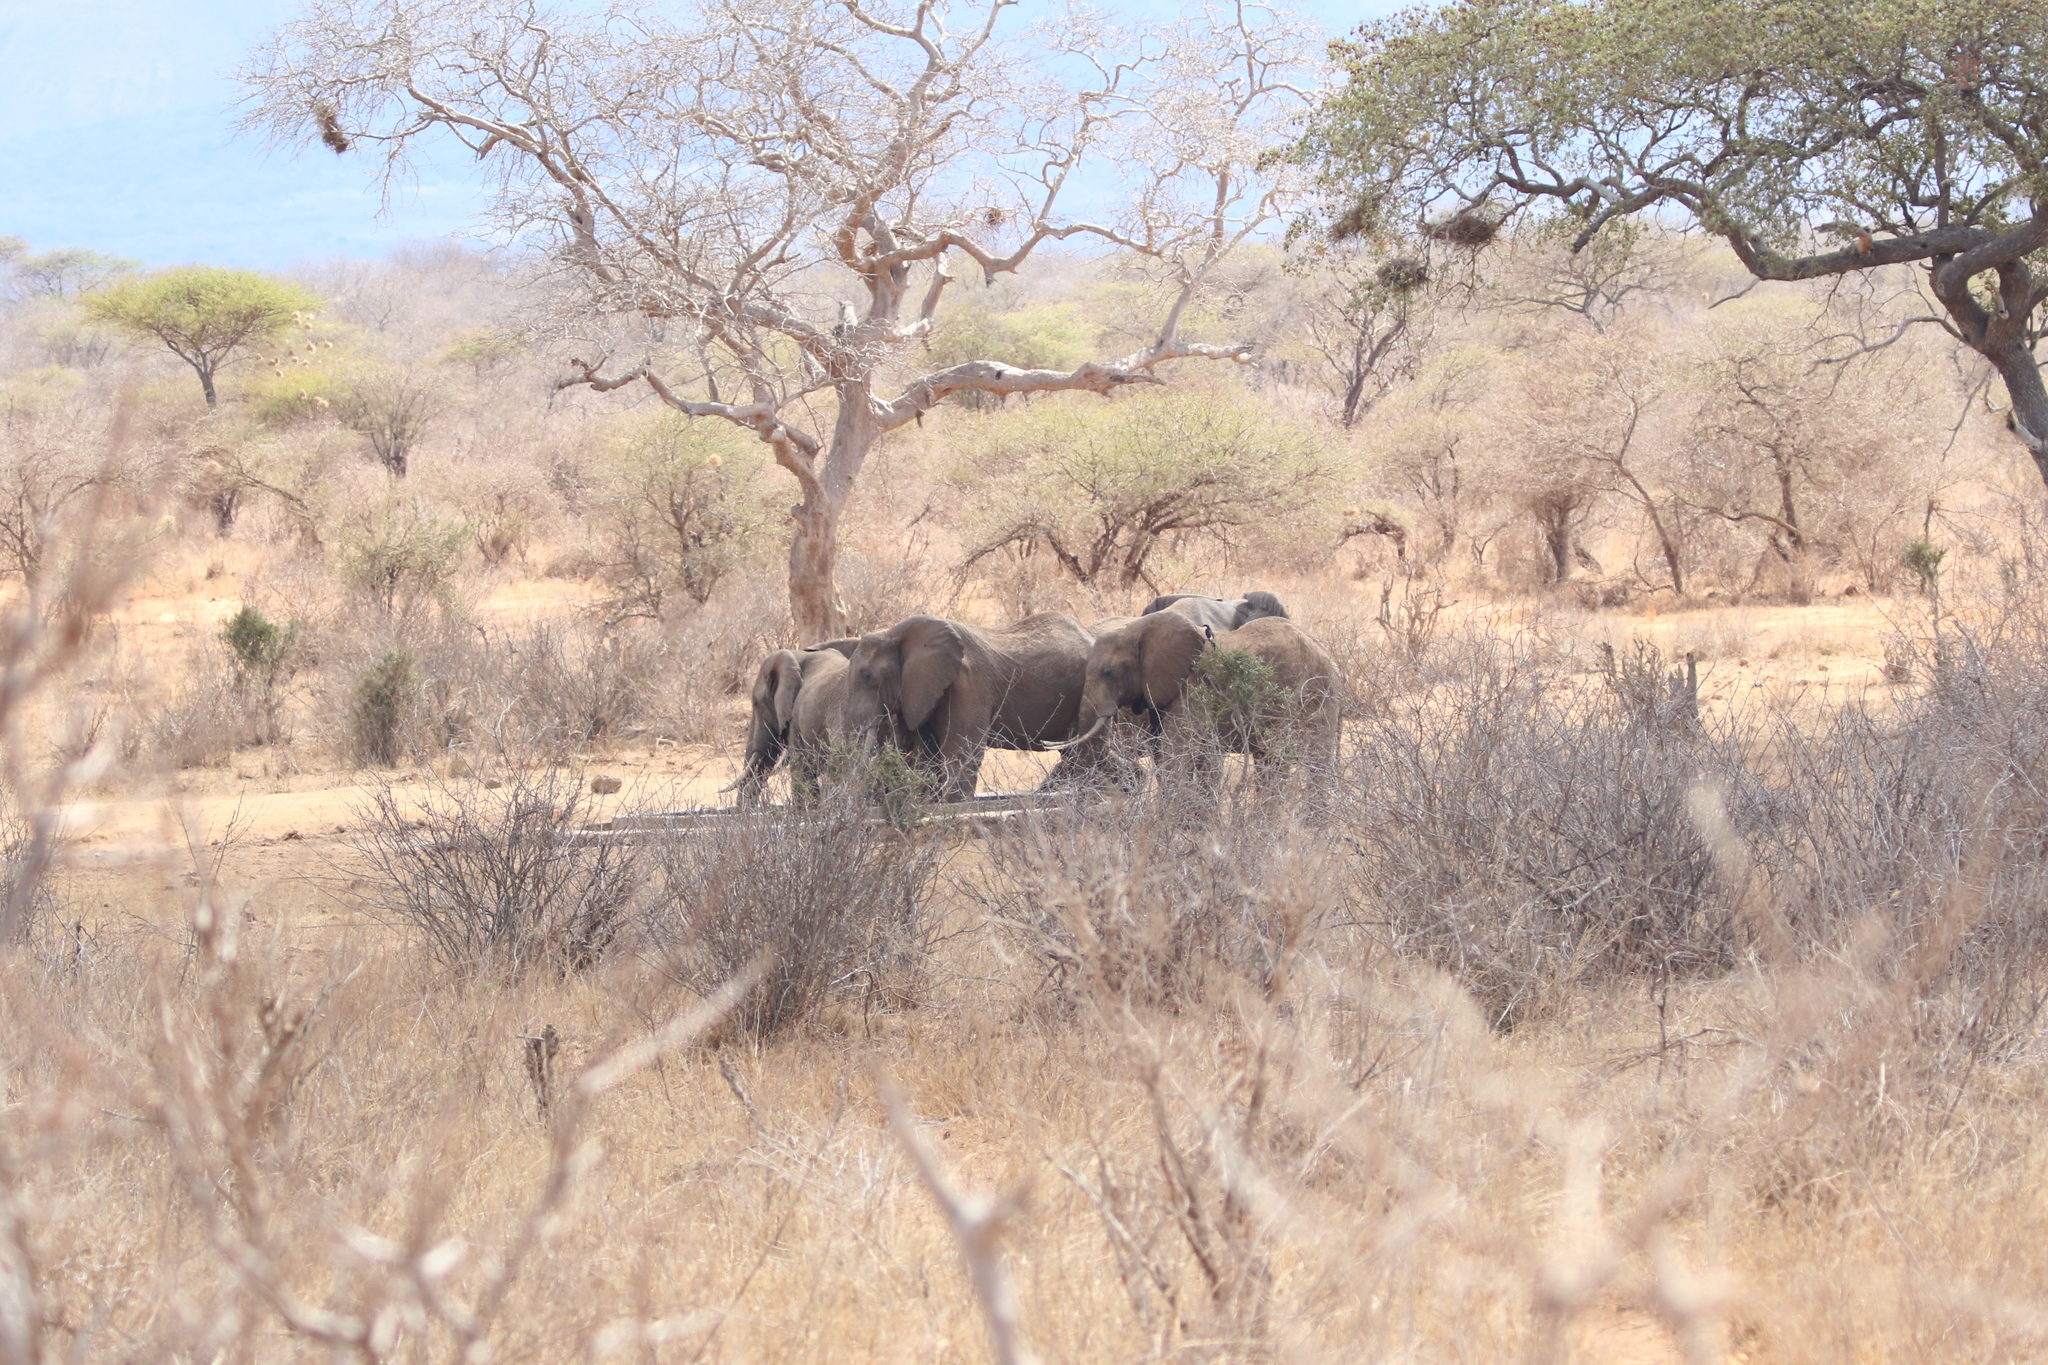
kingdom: Animalia
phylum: Chordata
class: Mammalia
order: Proboscidea
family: Elephantidae
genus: Loxodonta
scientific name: Loxodonta africana
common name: African elephant
